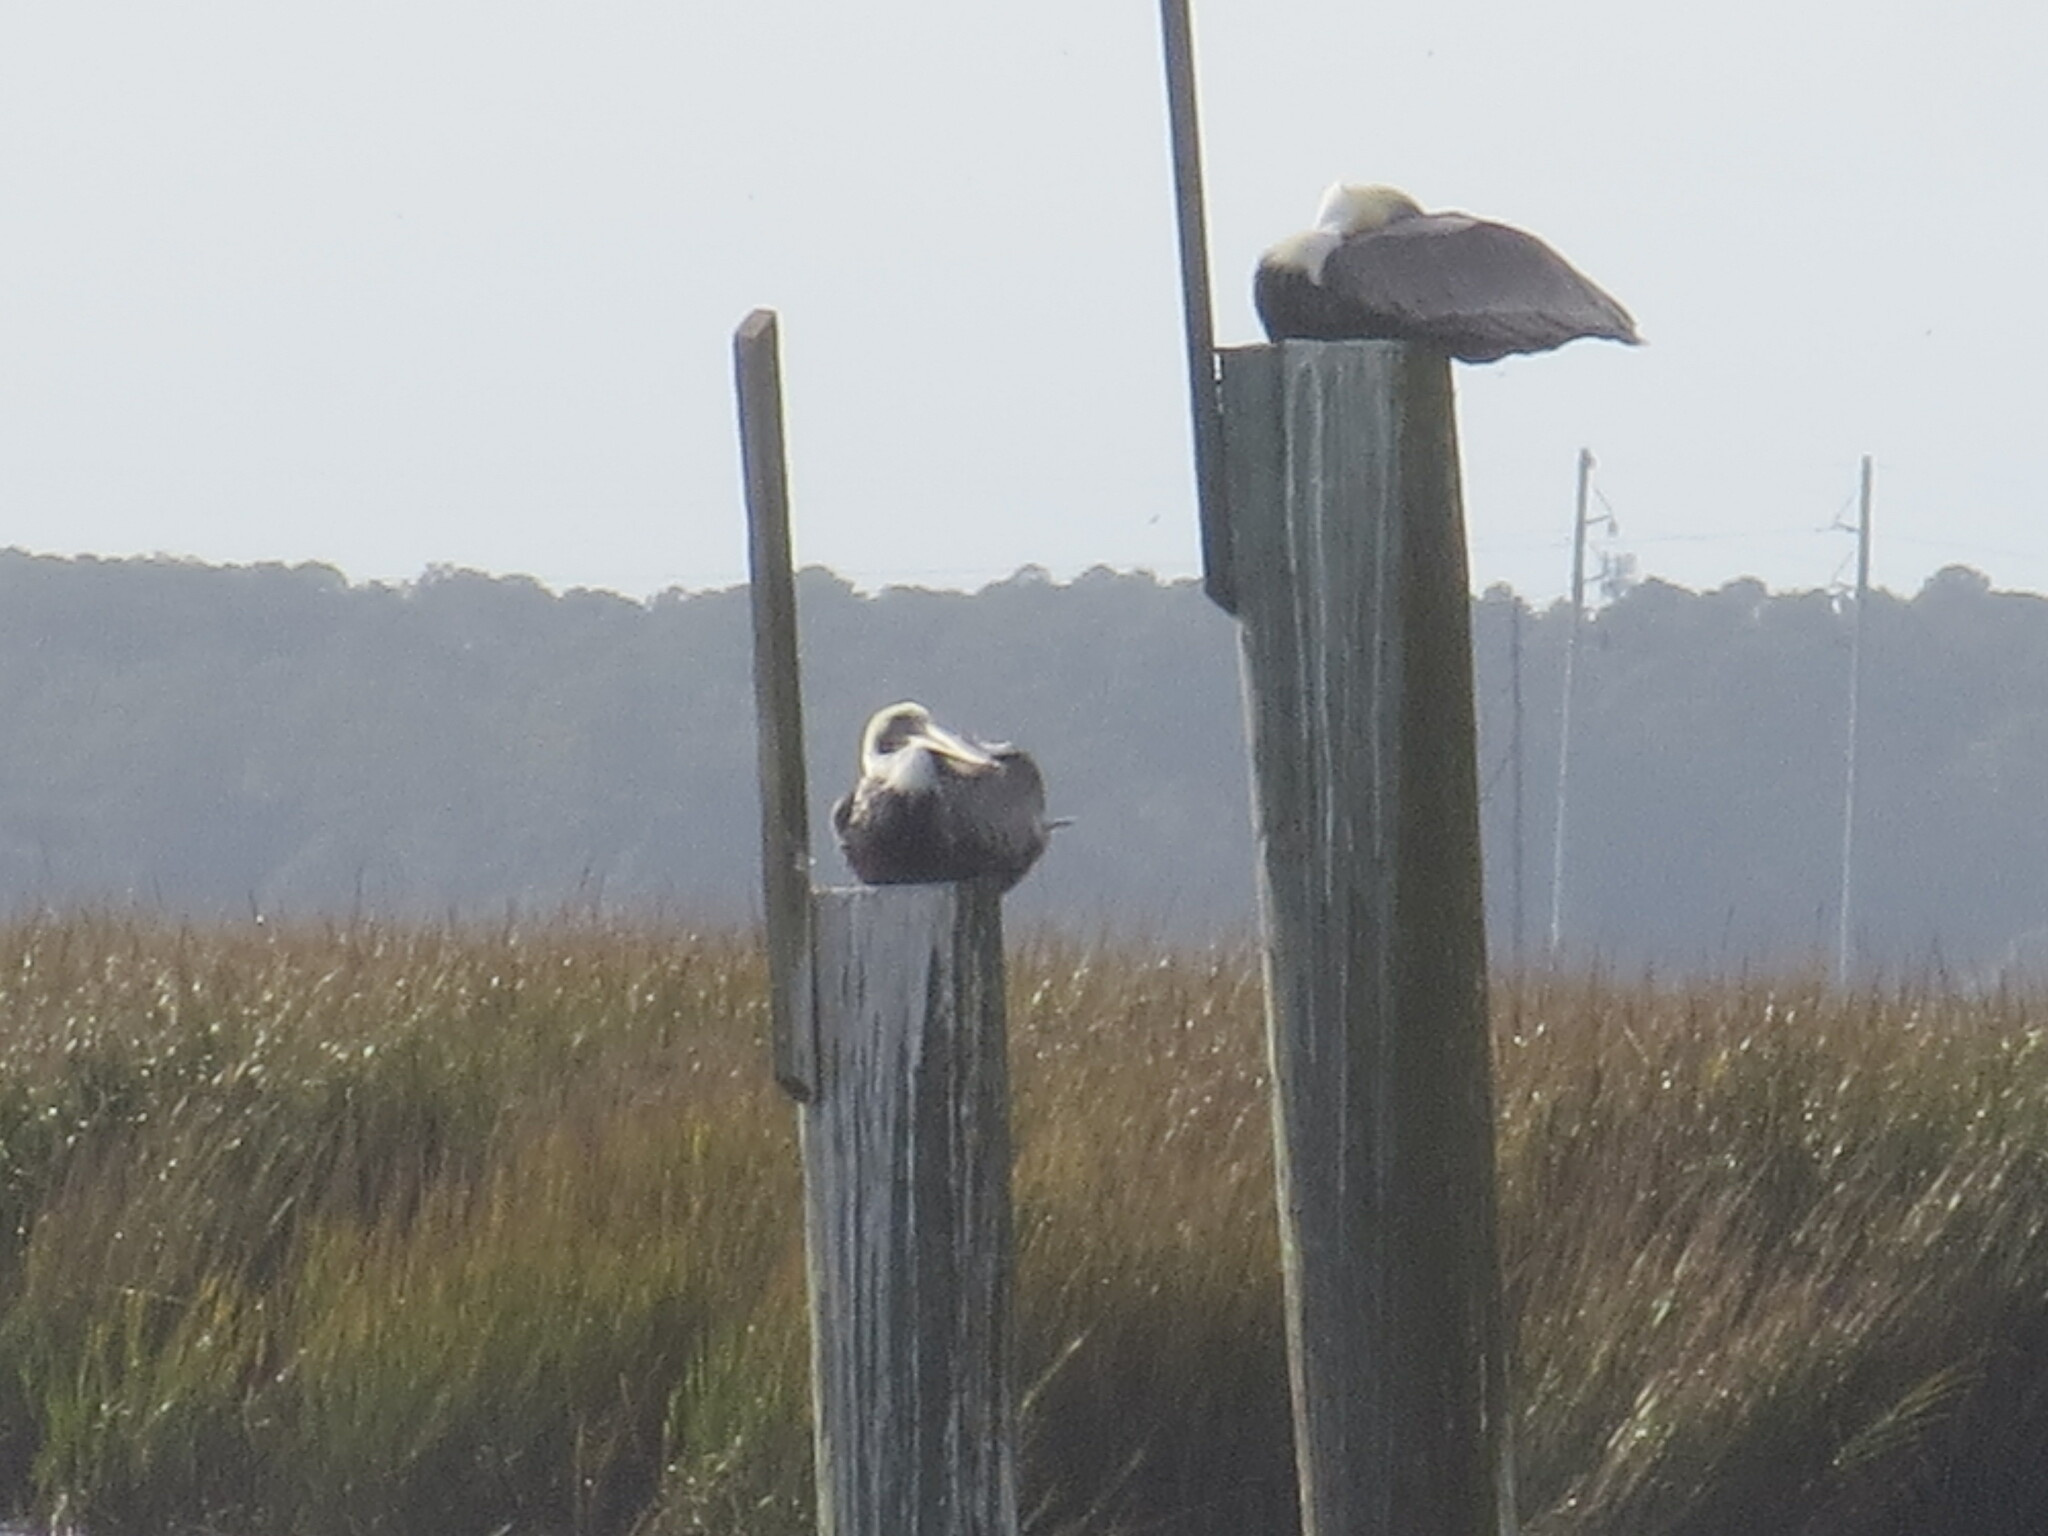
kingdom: Animalia
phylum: Chordata
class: Aves
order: Pelecaniformes
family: Pelecanidae
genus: Pelecanus
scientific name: Pelecanus occidentalis
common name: Brown pelican
